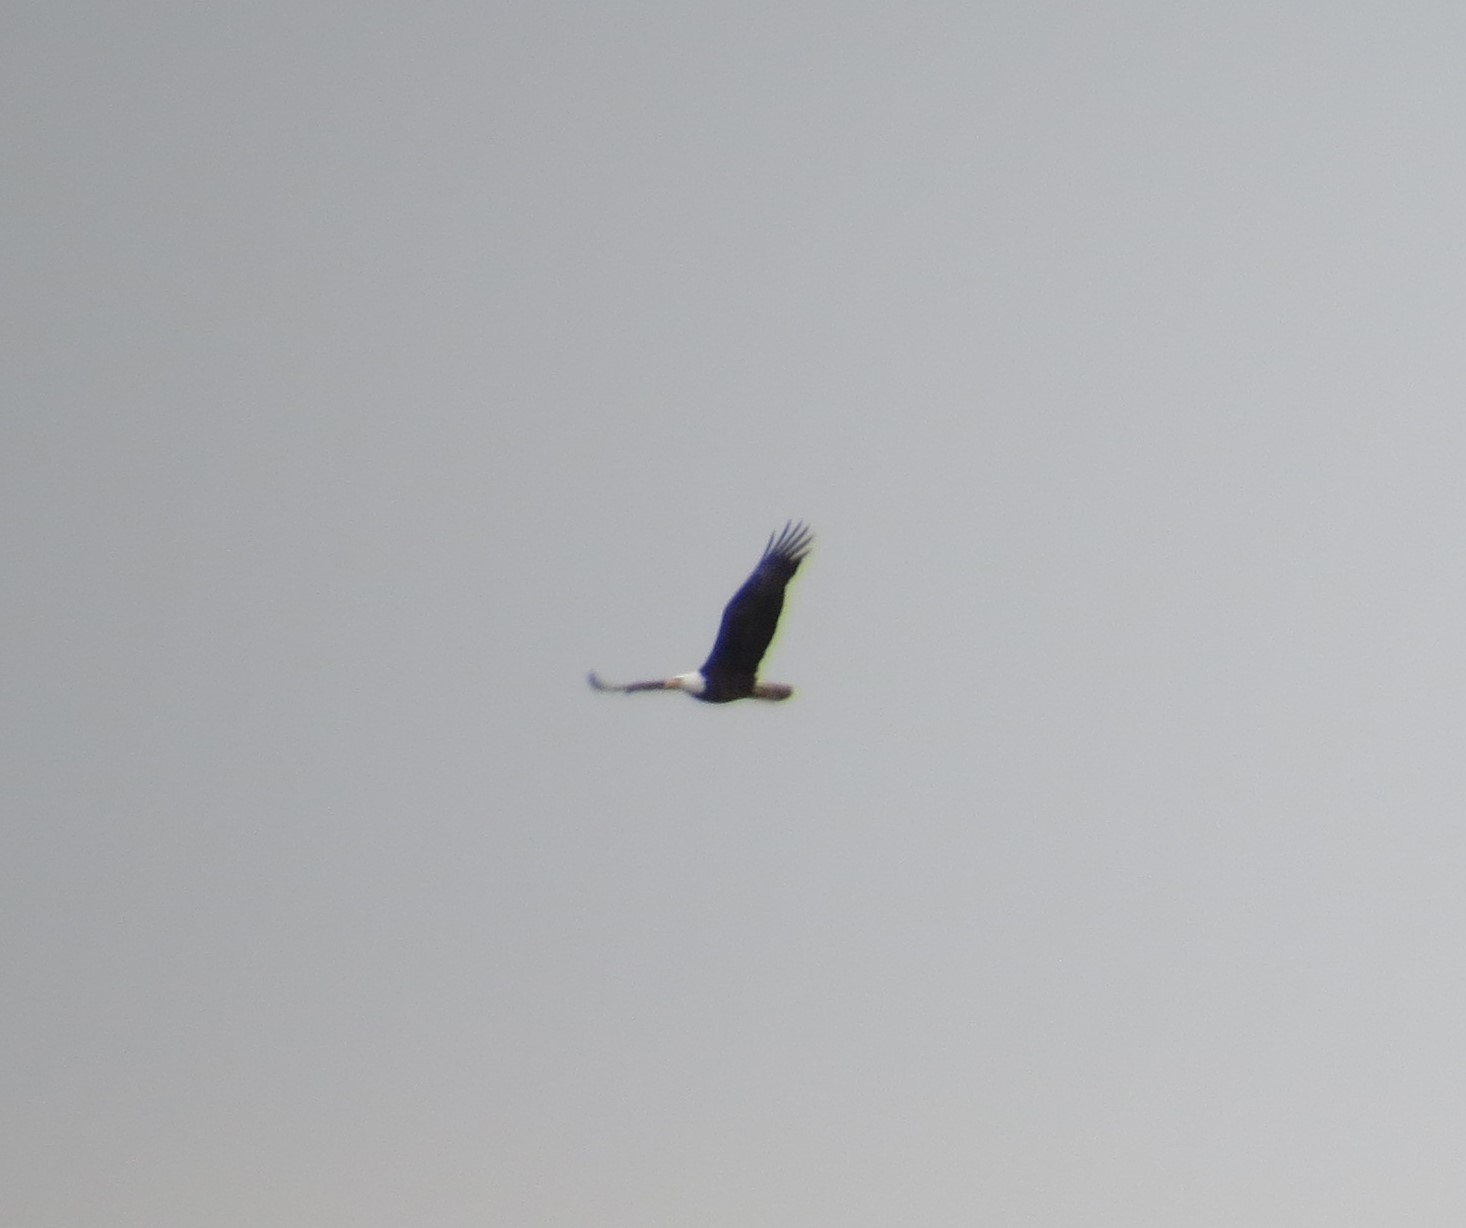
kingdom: Animalia
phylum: Chordata
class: Aves
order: Accipitriformes
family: Accipitridae
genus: Haliaeetus
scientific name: Haliaeetus leucocephalus
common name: Bald eagle
